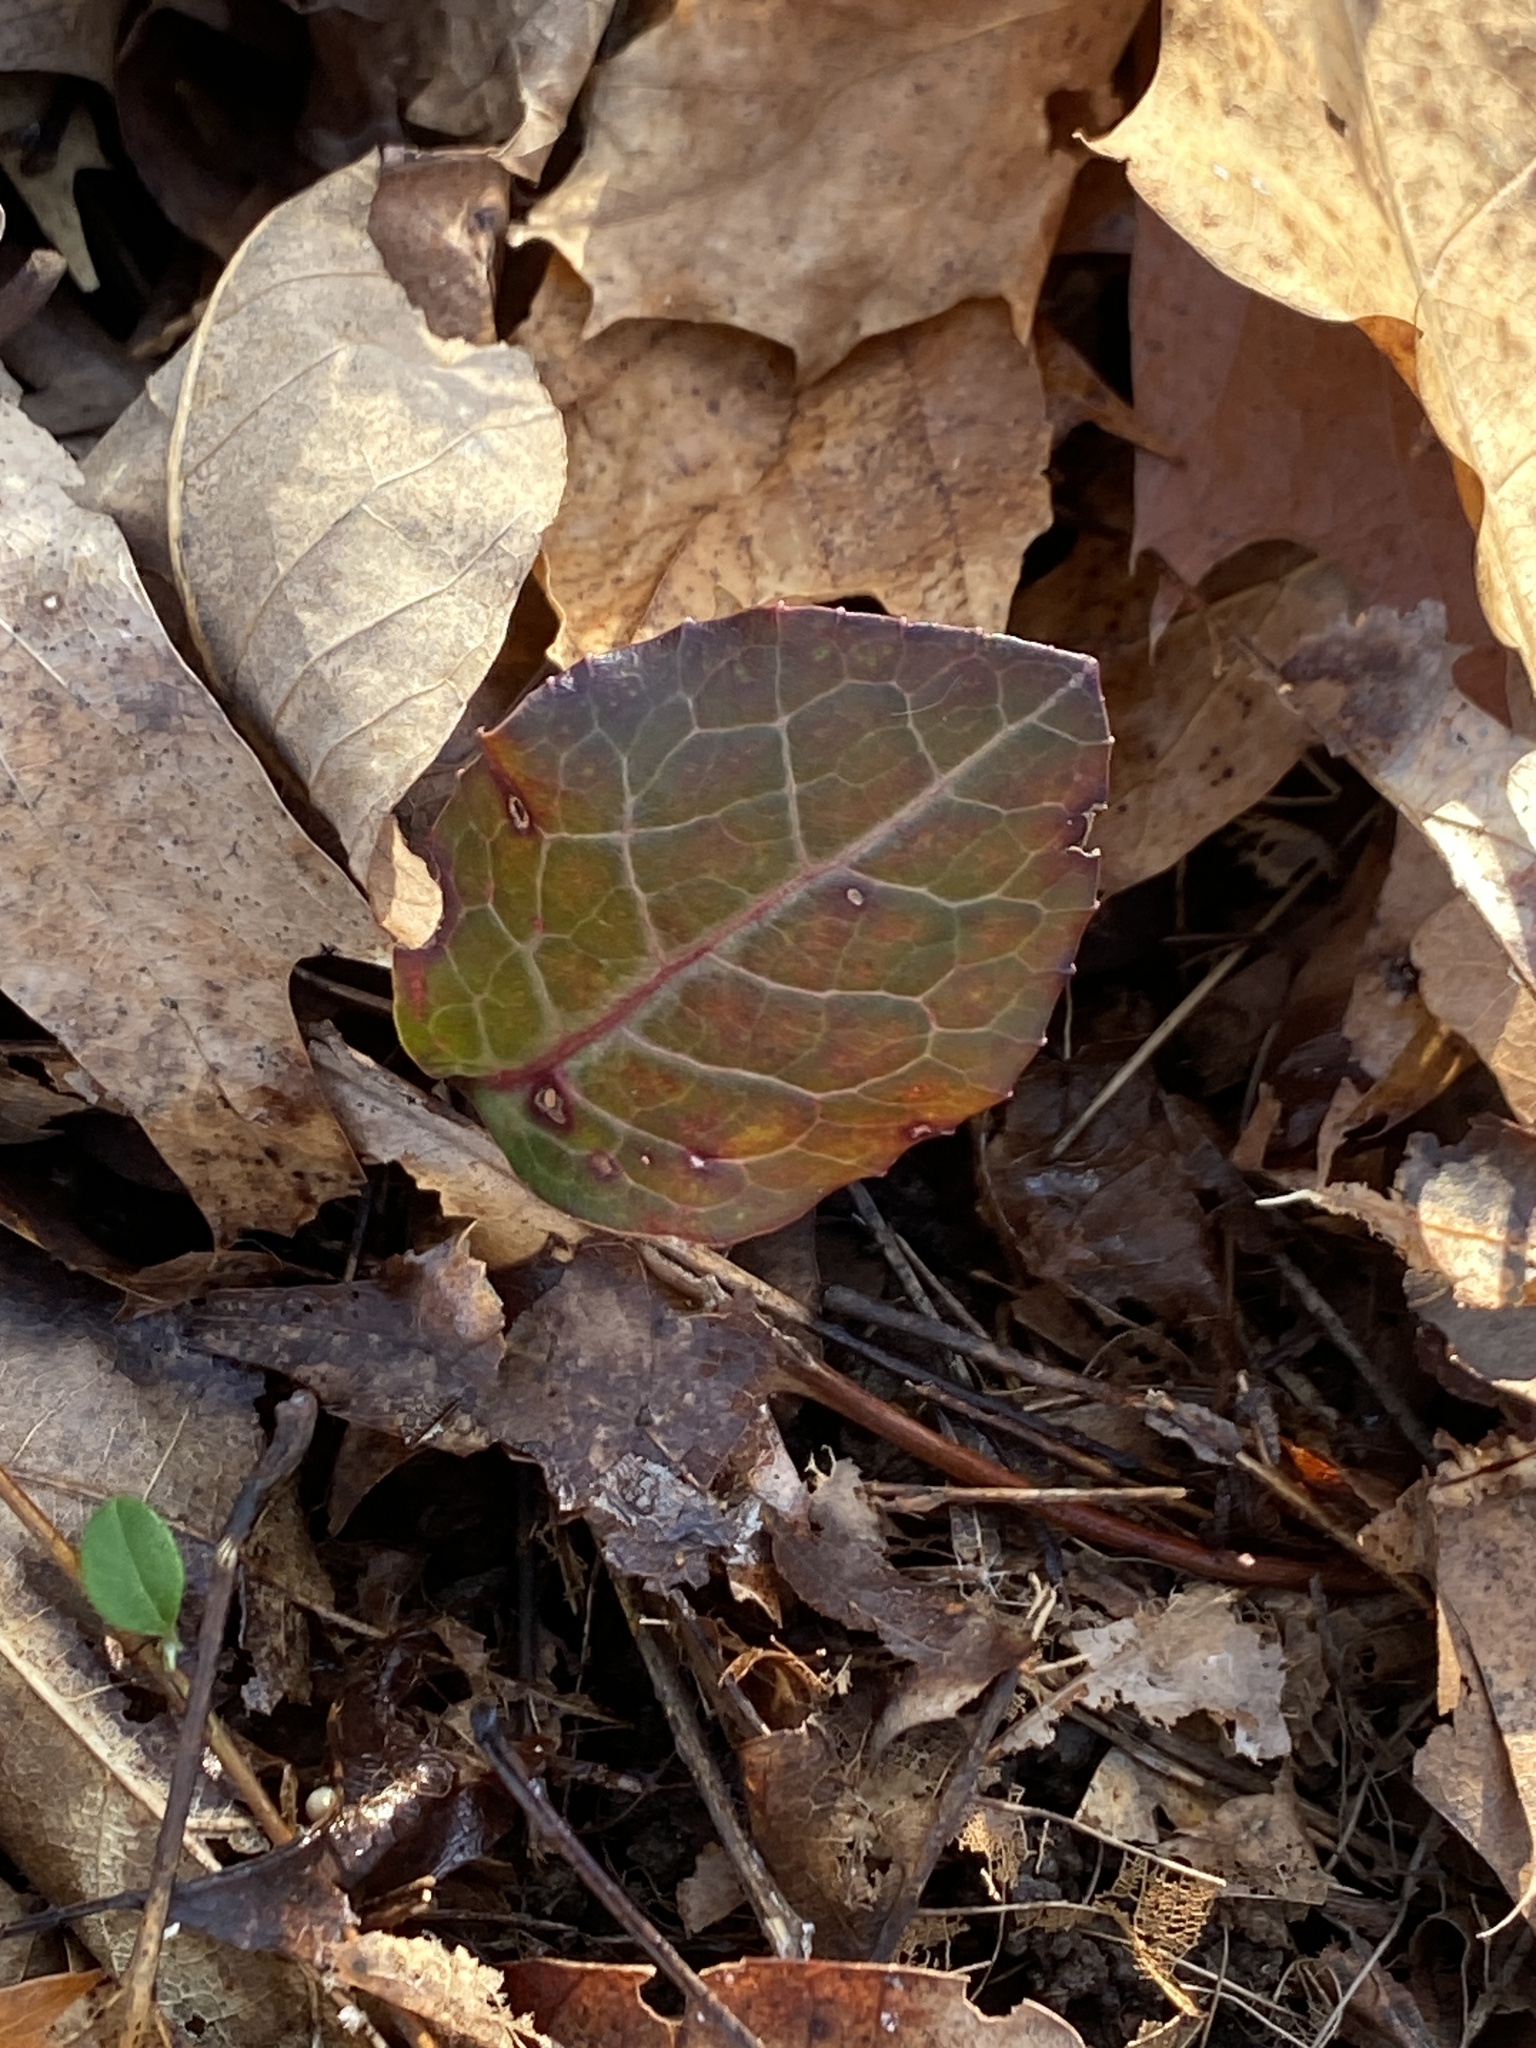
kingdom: Plantae
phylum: Tracheophyta
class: Magnoliopsida
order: Ericales
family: Ericaceae
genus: Pyrola
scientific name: Pyrola americana
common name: American wintergreen
